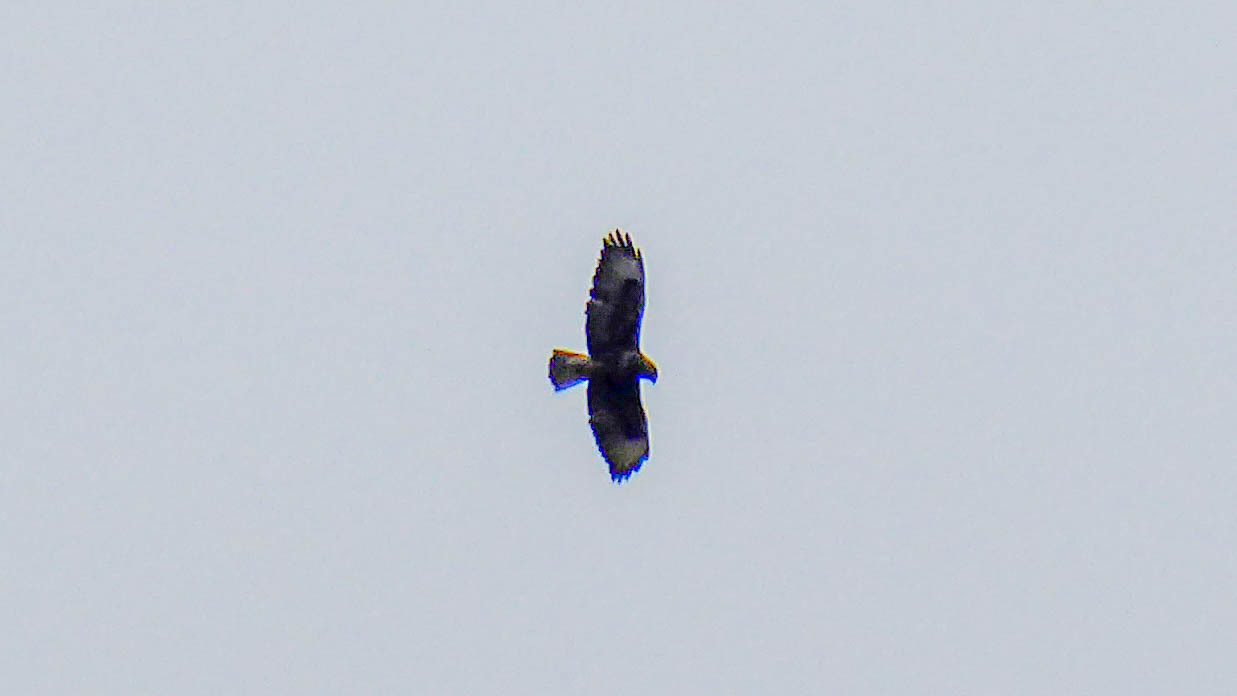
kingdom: Animalia
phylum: Chordata
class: Aves
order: Accipitriformes
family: Accipitridae
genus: Buteo
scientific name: Buteo buteo
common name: Common buzzard
